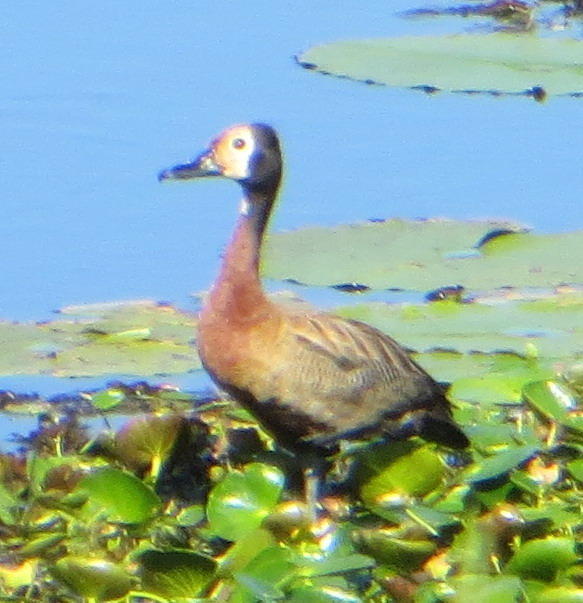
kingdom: Animalia
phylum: Chordata
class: Aves
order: Anseriformes
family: Anatidae
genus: Dendrocygna
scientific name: Dendrocygna viduata
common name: White-faced whistling duck
